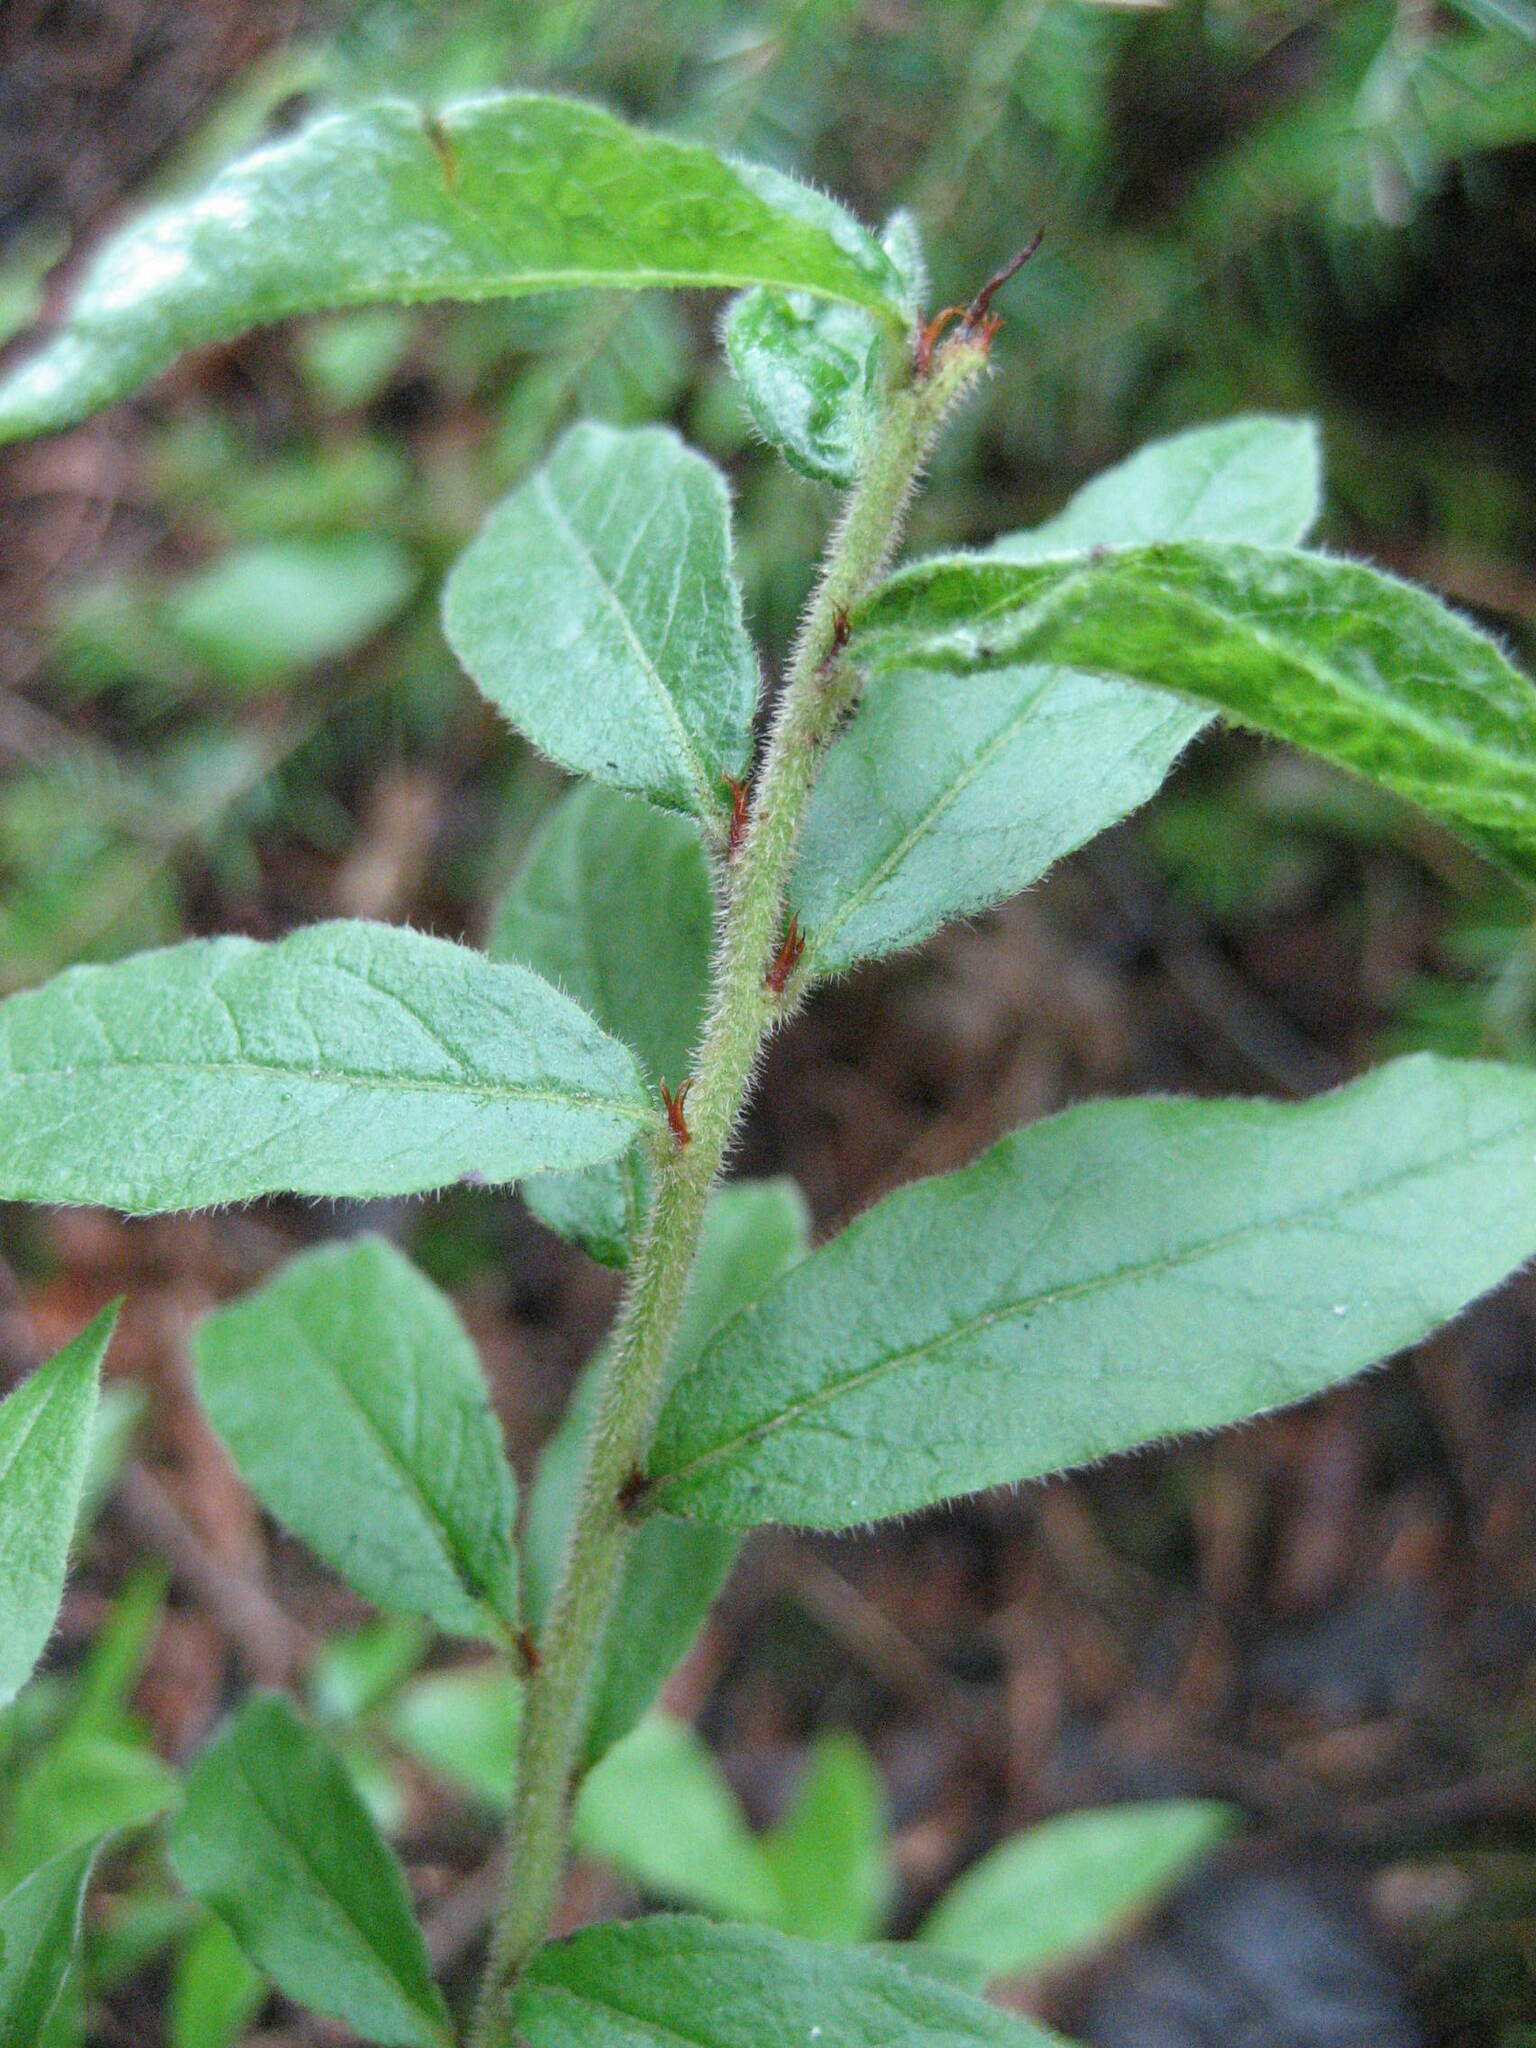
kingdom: Plantae
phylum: Tracheophyta
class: Magnoliopsida
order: Ericales
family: Ericaceae
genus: Vaccinium
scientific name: Vaccinium myrtilloides
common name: Canada blueberry
